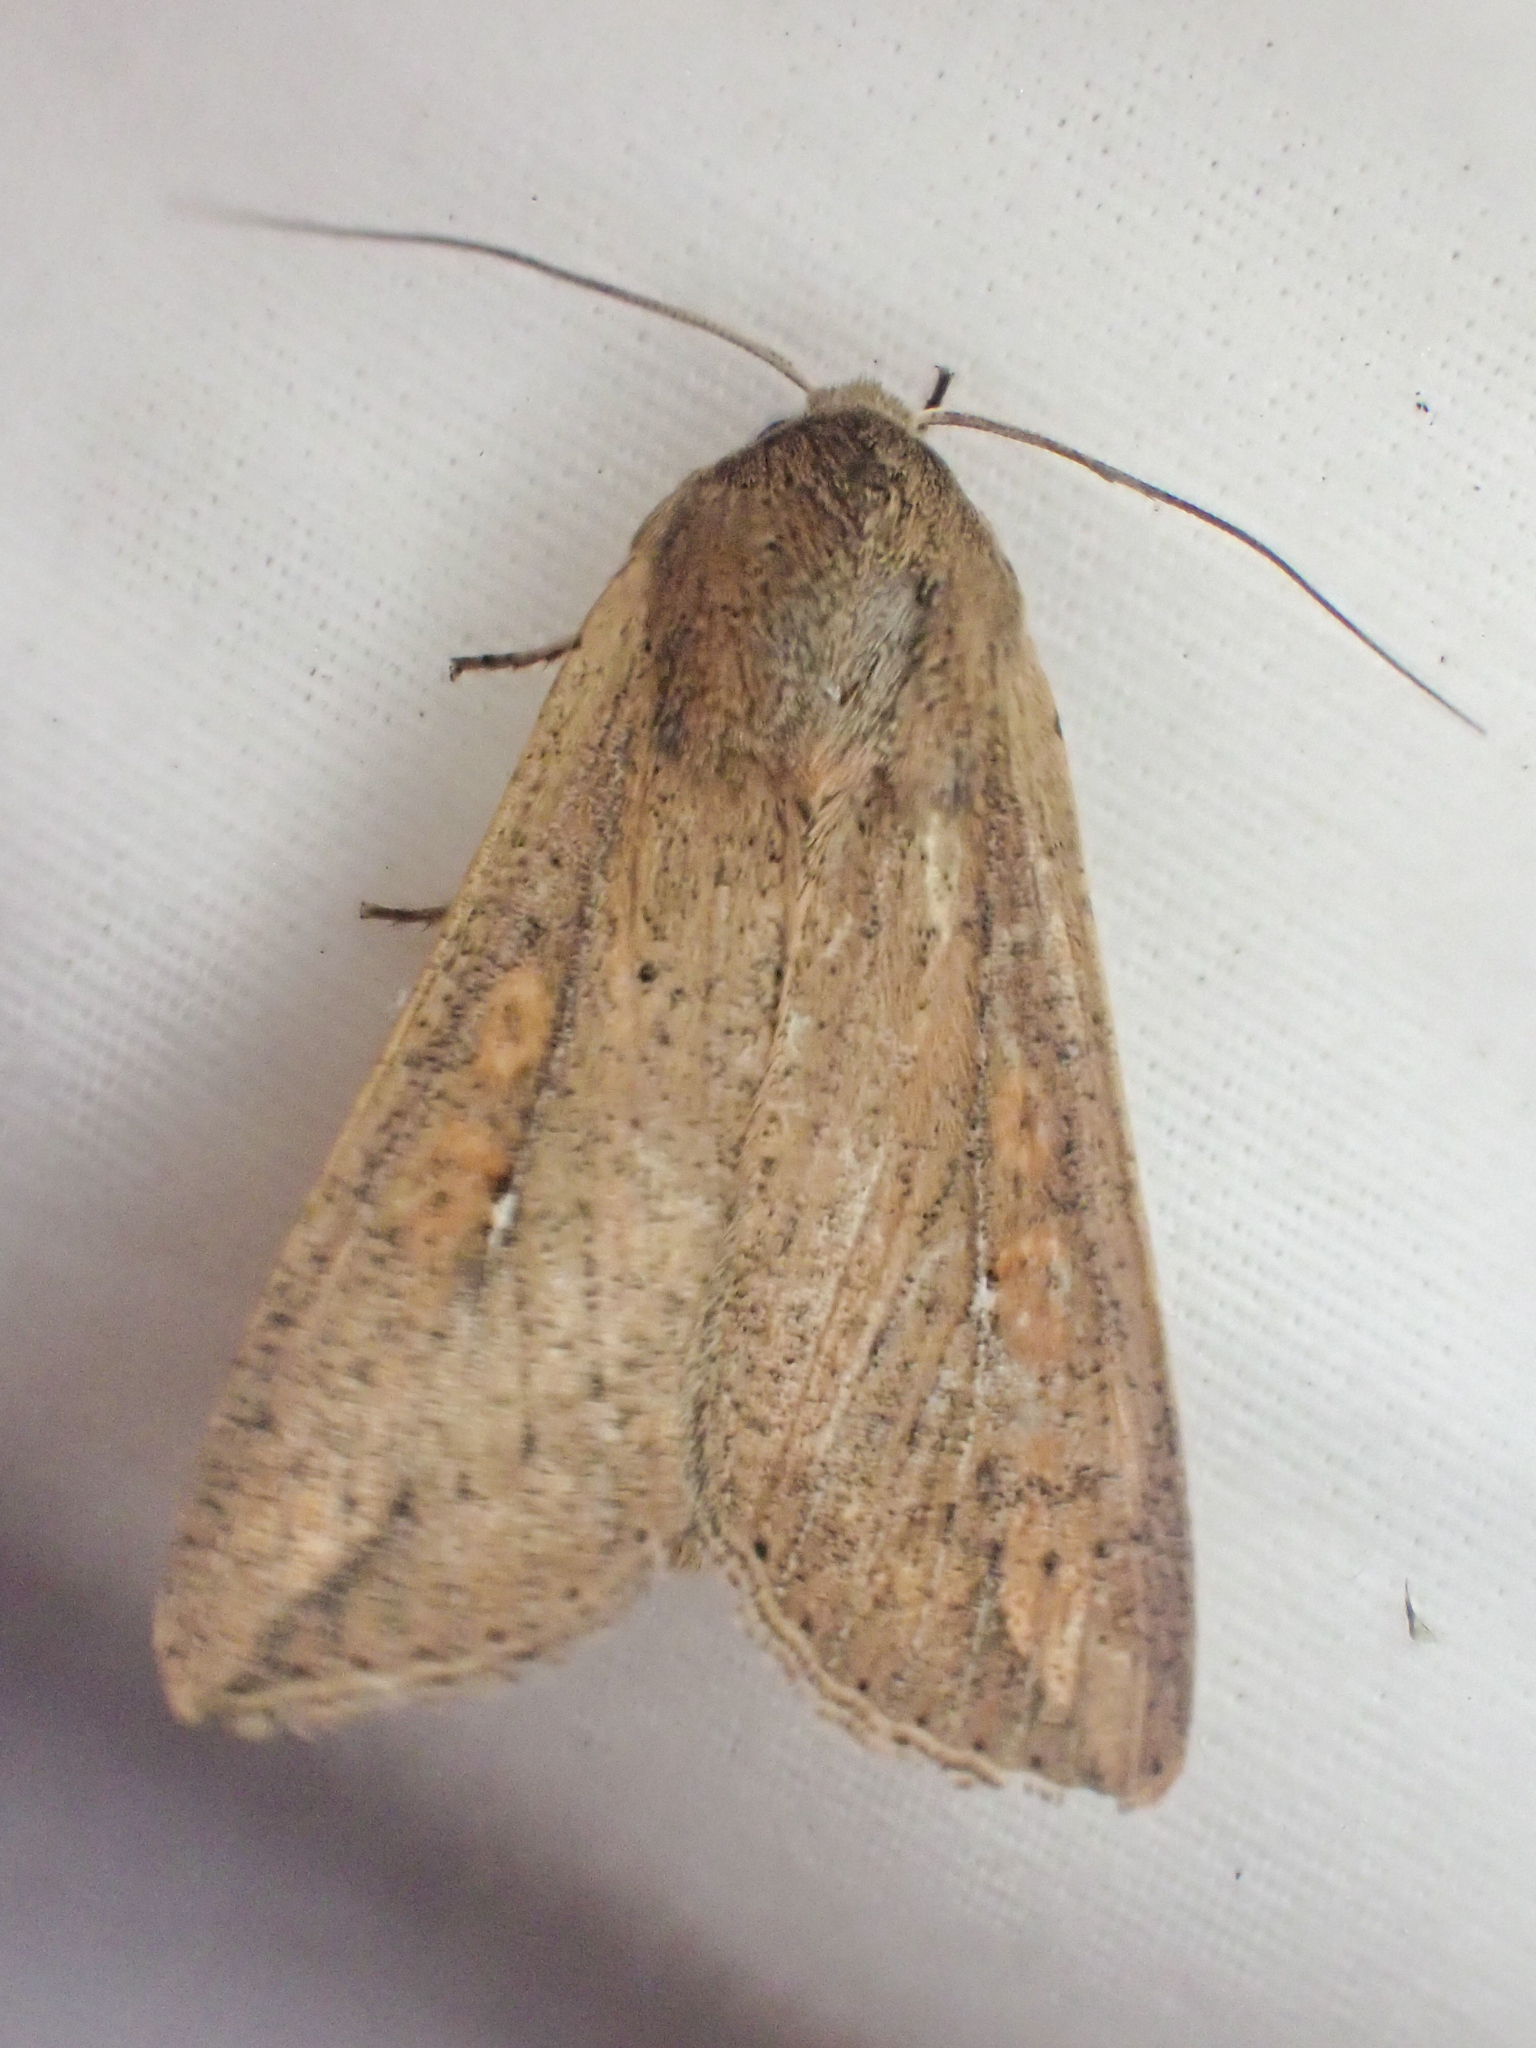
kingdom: Animalia
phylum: Arthropoda
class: Insecta
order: Lepidoptera
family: Noctuidae
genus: Mythimna
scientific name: Mythimna unipuncta
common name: White-speck
